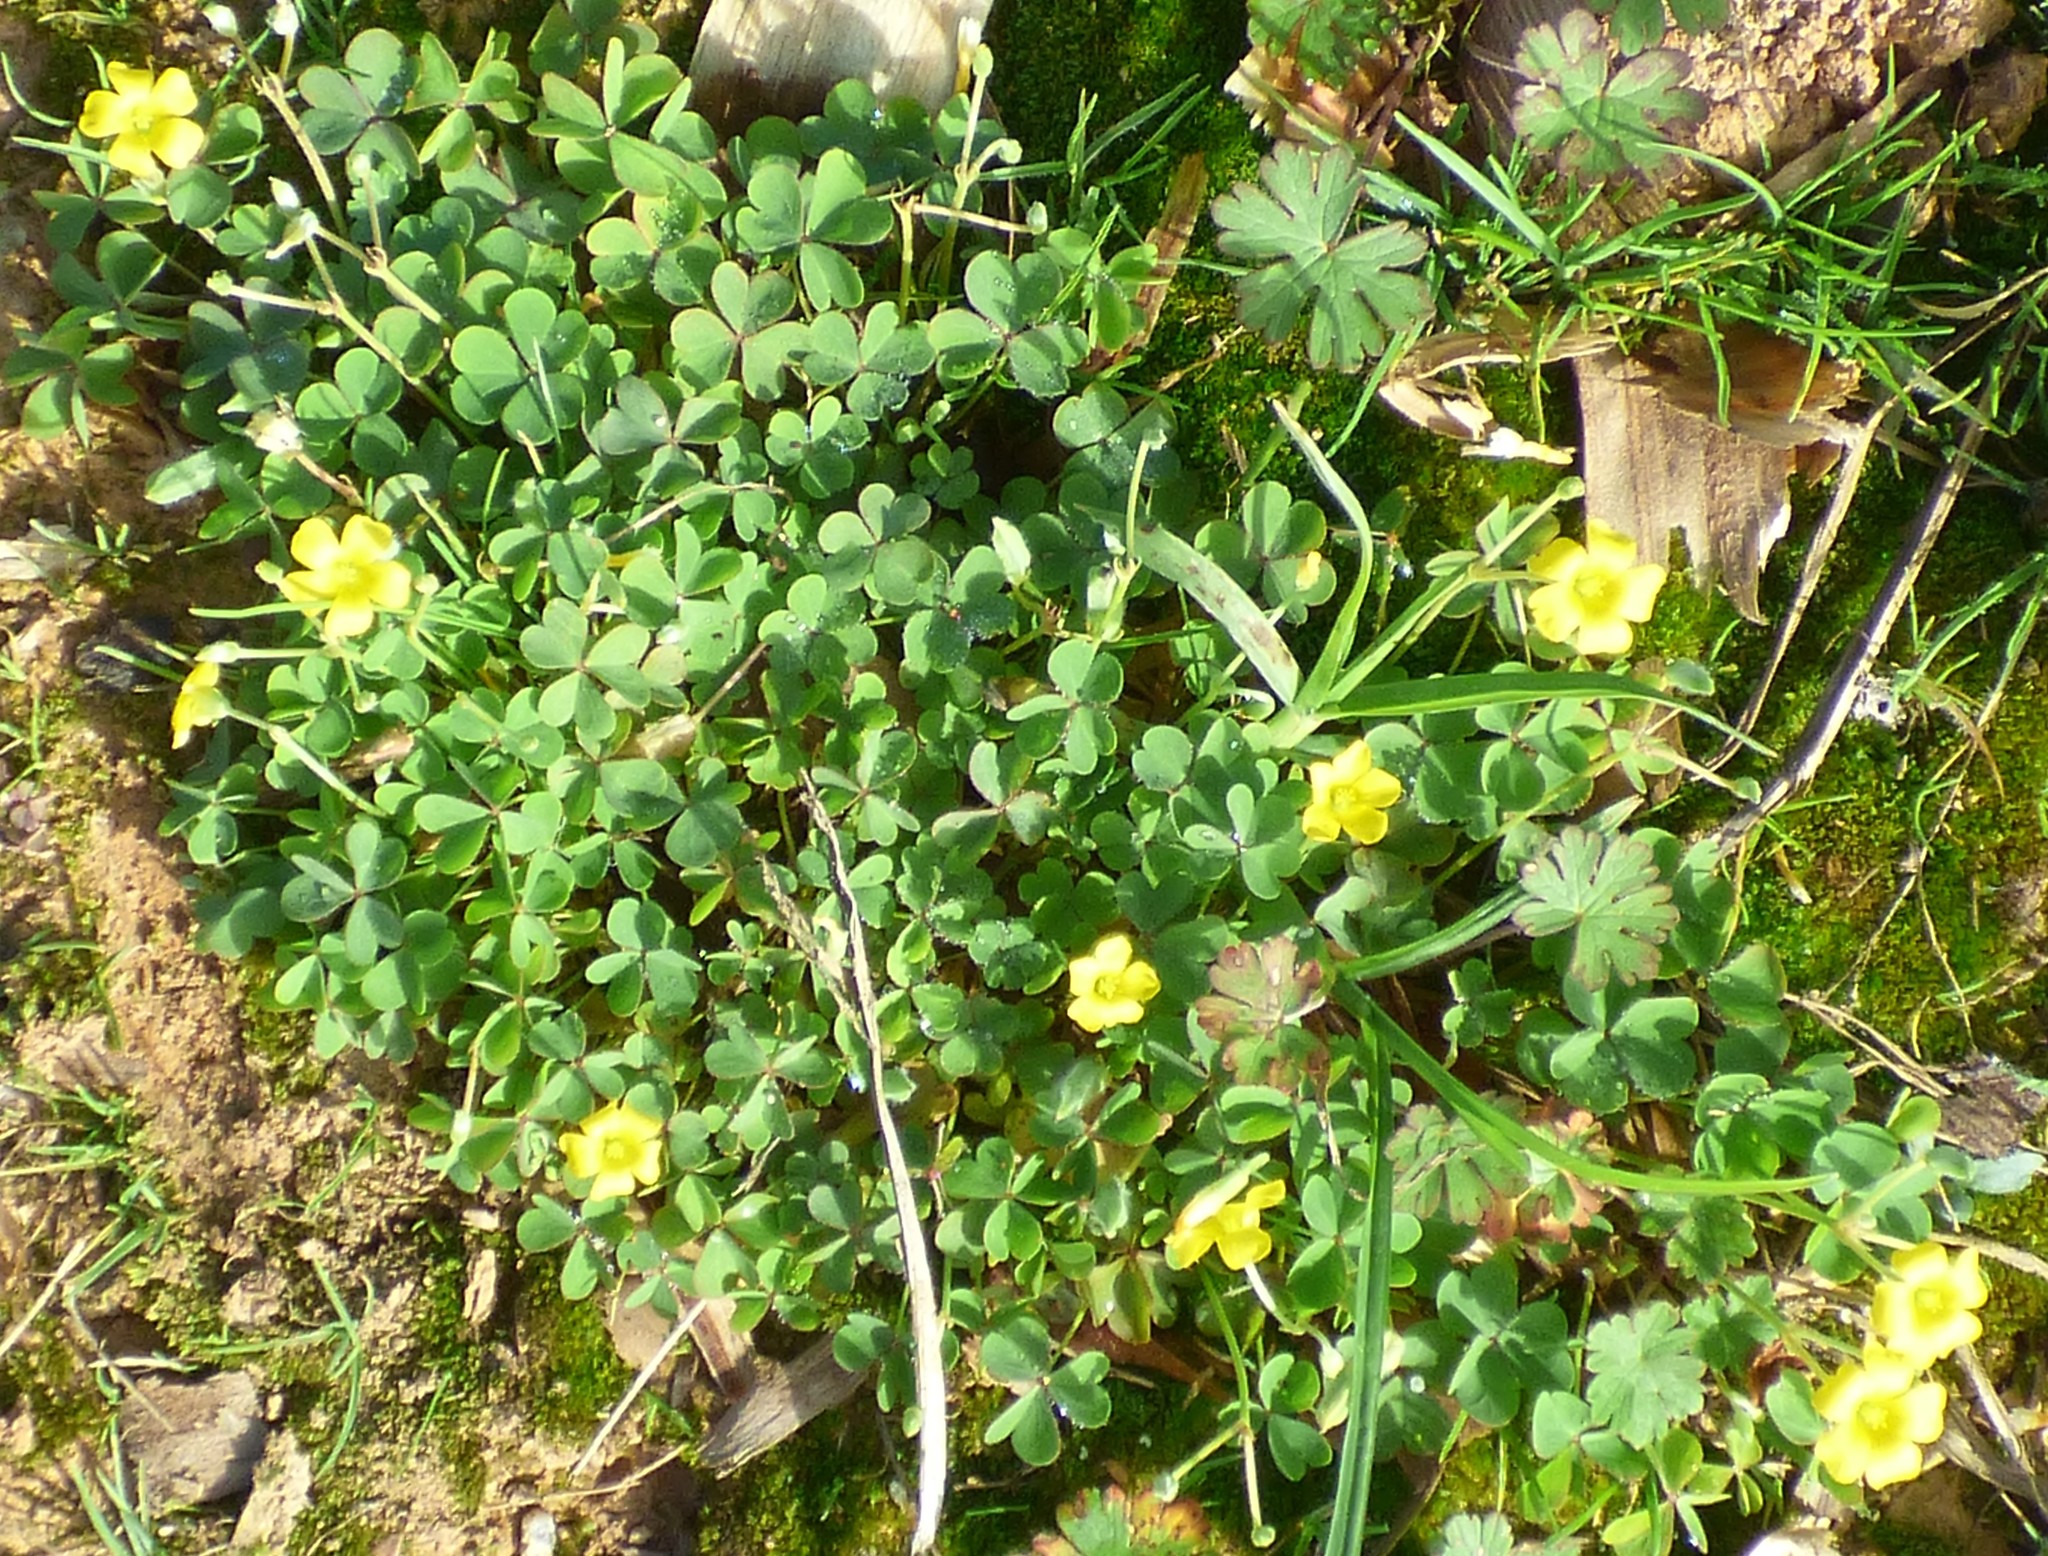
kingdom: Plantae
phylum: Tracheophyta
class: Magnoliopsida
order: Oxalidales
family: Oxalidaceae
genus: Oxalis
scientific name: Oxalis corniculata
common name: Procumbent yellow-sorrel
